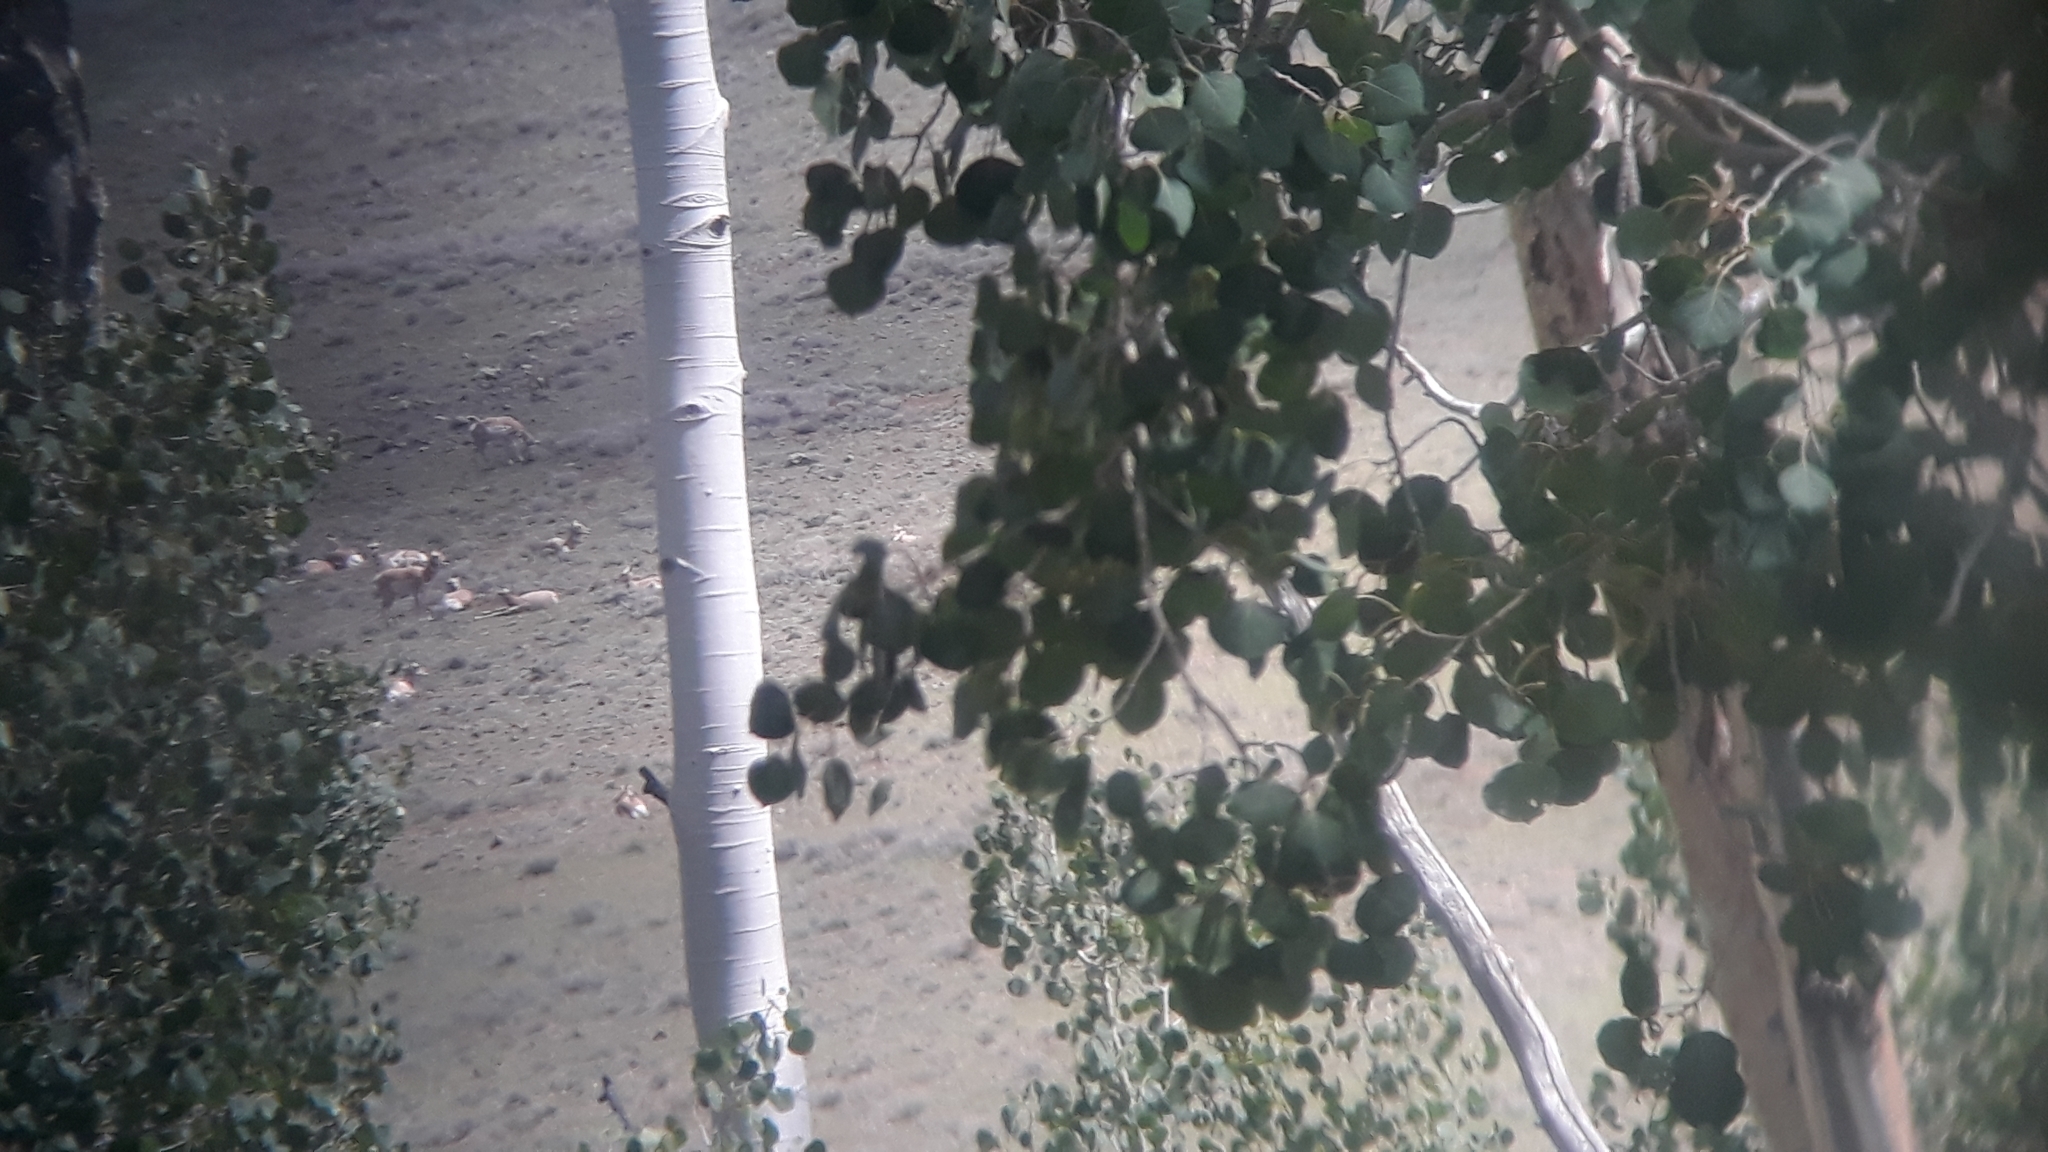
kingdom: Plantae
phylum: Tracheophyta
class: Magnoliopsida
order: Malpighiales
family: Salicaceae
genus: Populus
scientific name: Populus tremuloides
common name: Quaking aspen
